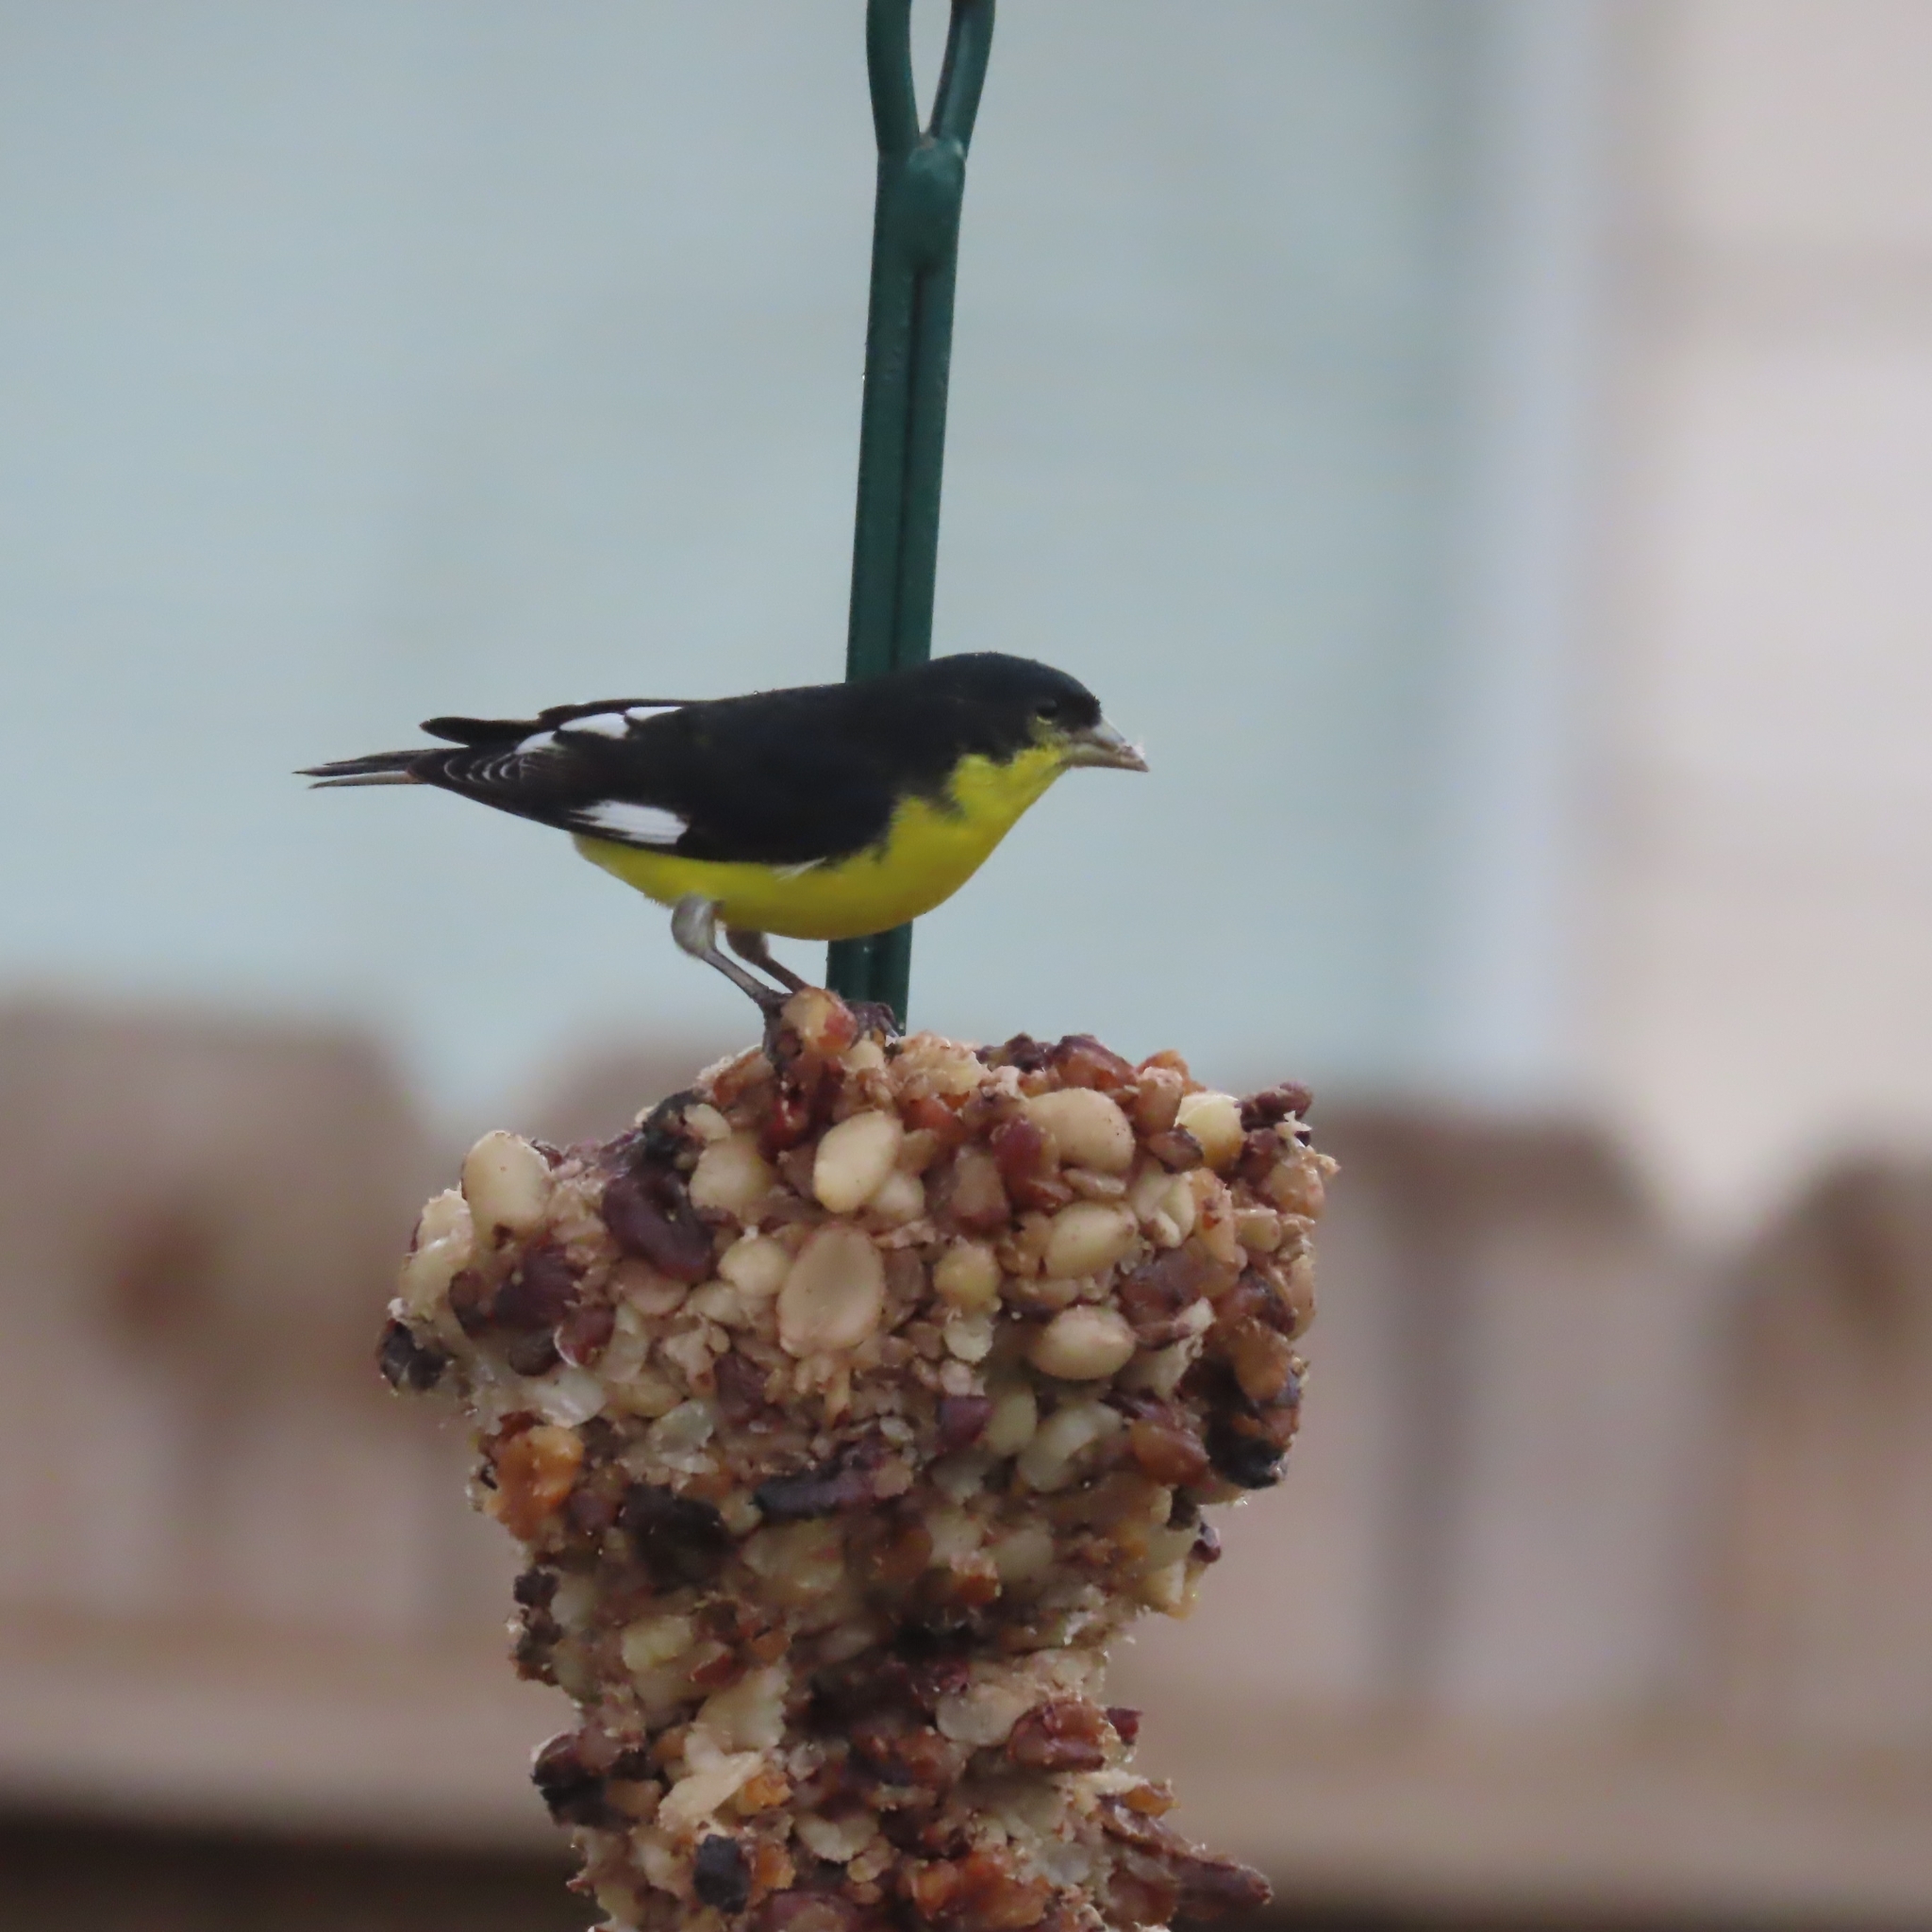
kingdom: Animalia
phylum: Chordata
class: Aves
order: Passeriformes
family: Fringillidae
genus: Spinus
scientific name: Spinus psaltria
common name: Lesser goldfinch
